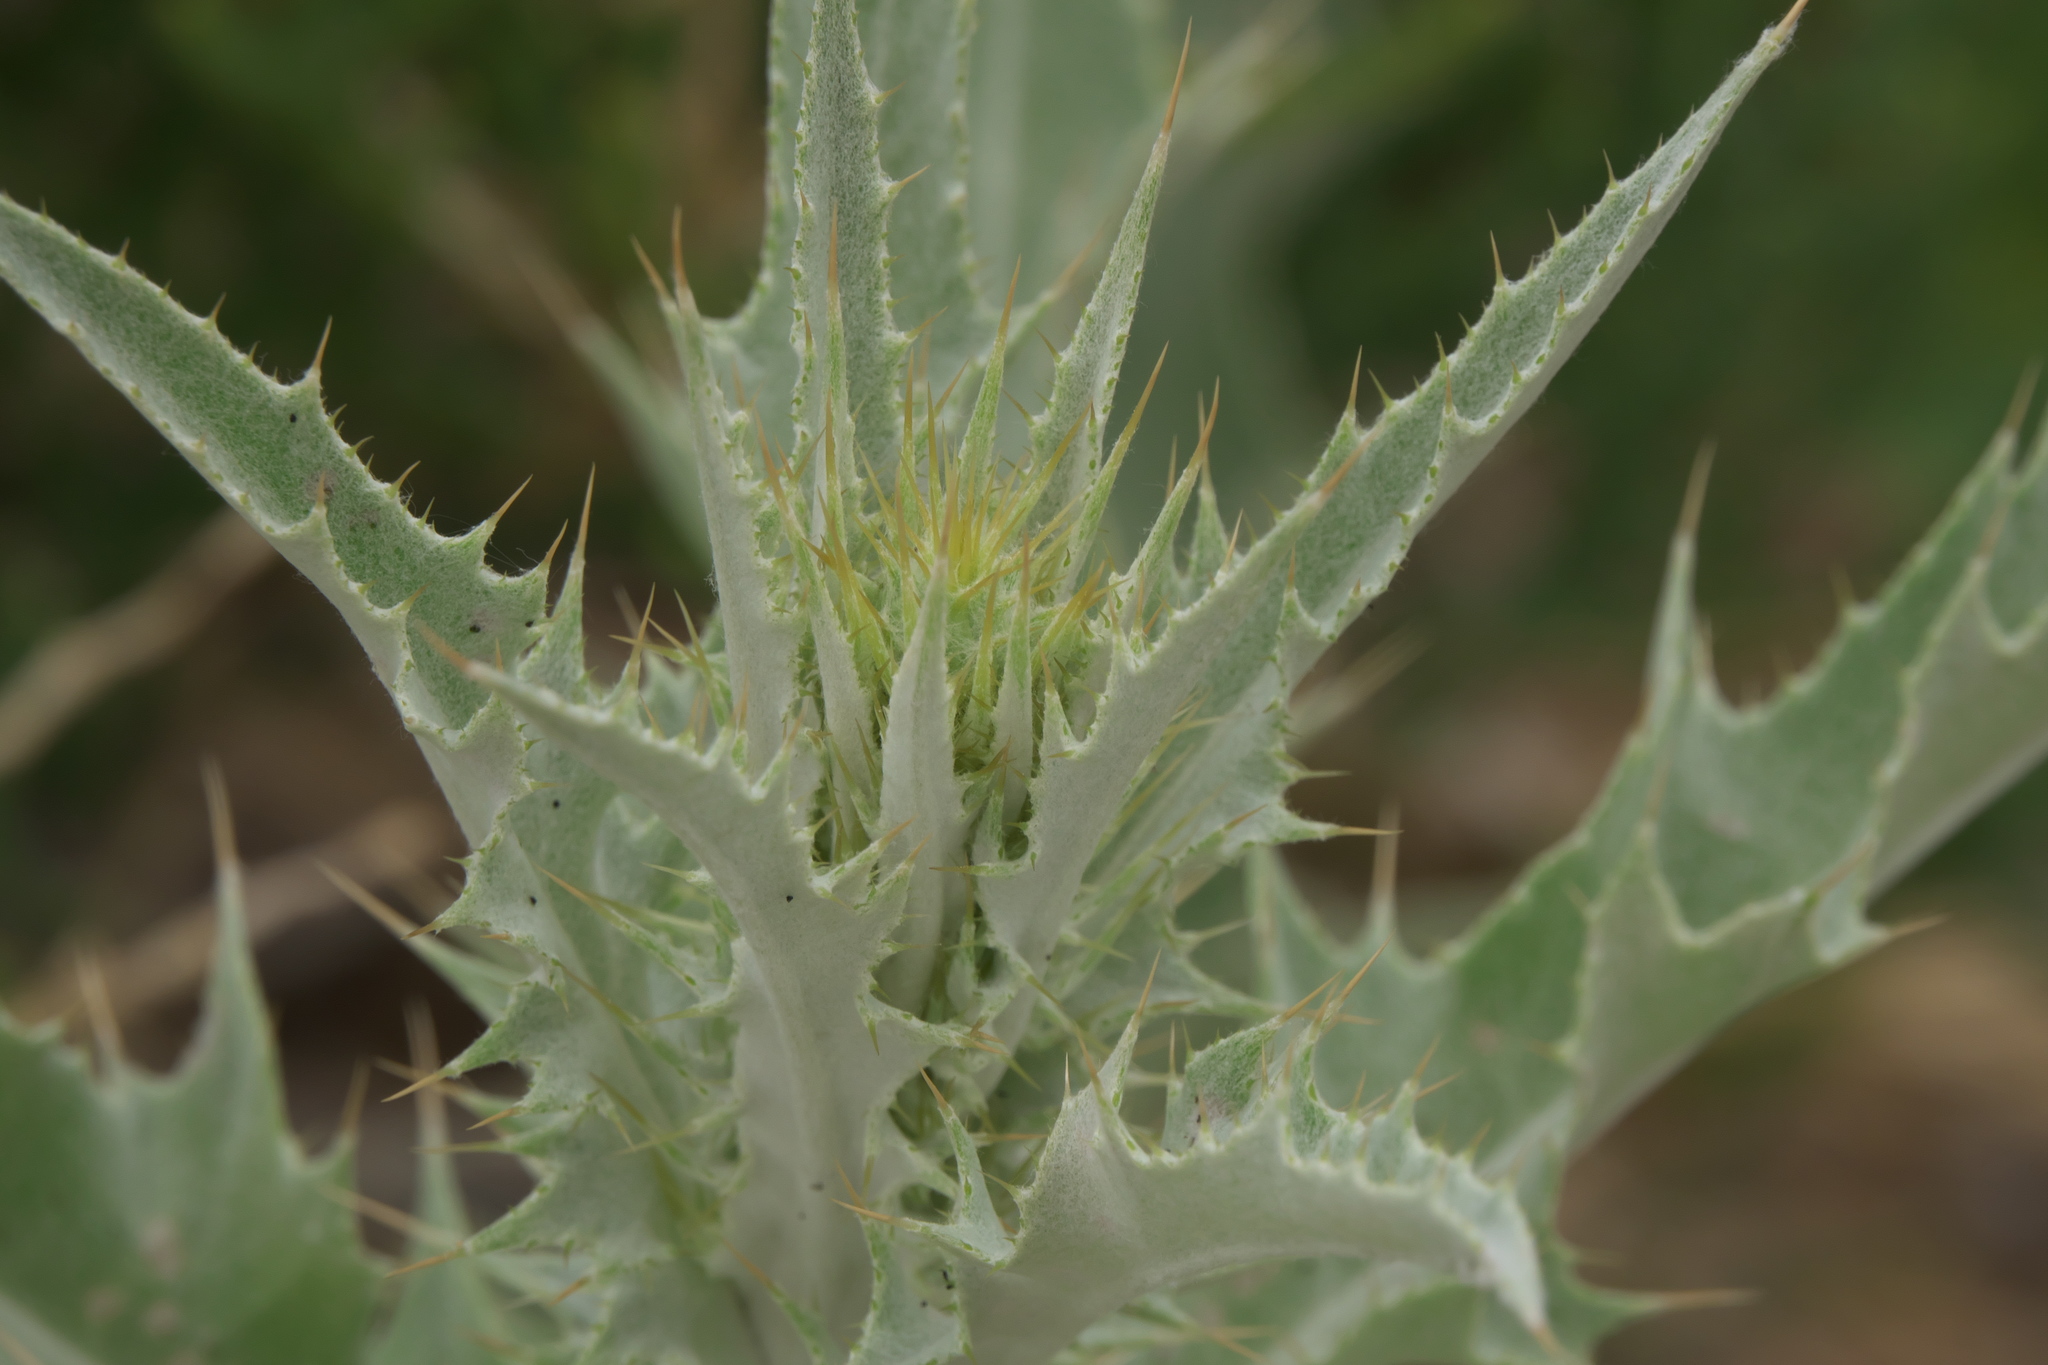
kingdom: Plantae
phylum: Tracheophyta
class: Magnoliopsida
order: Asterales
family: Asteraceae
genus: Cirsium
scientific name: Cirsium mohavense
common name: Mojave thistle
